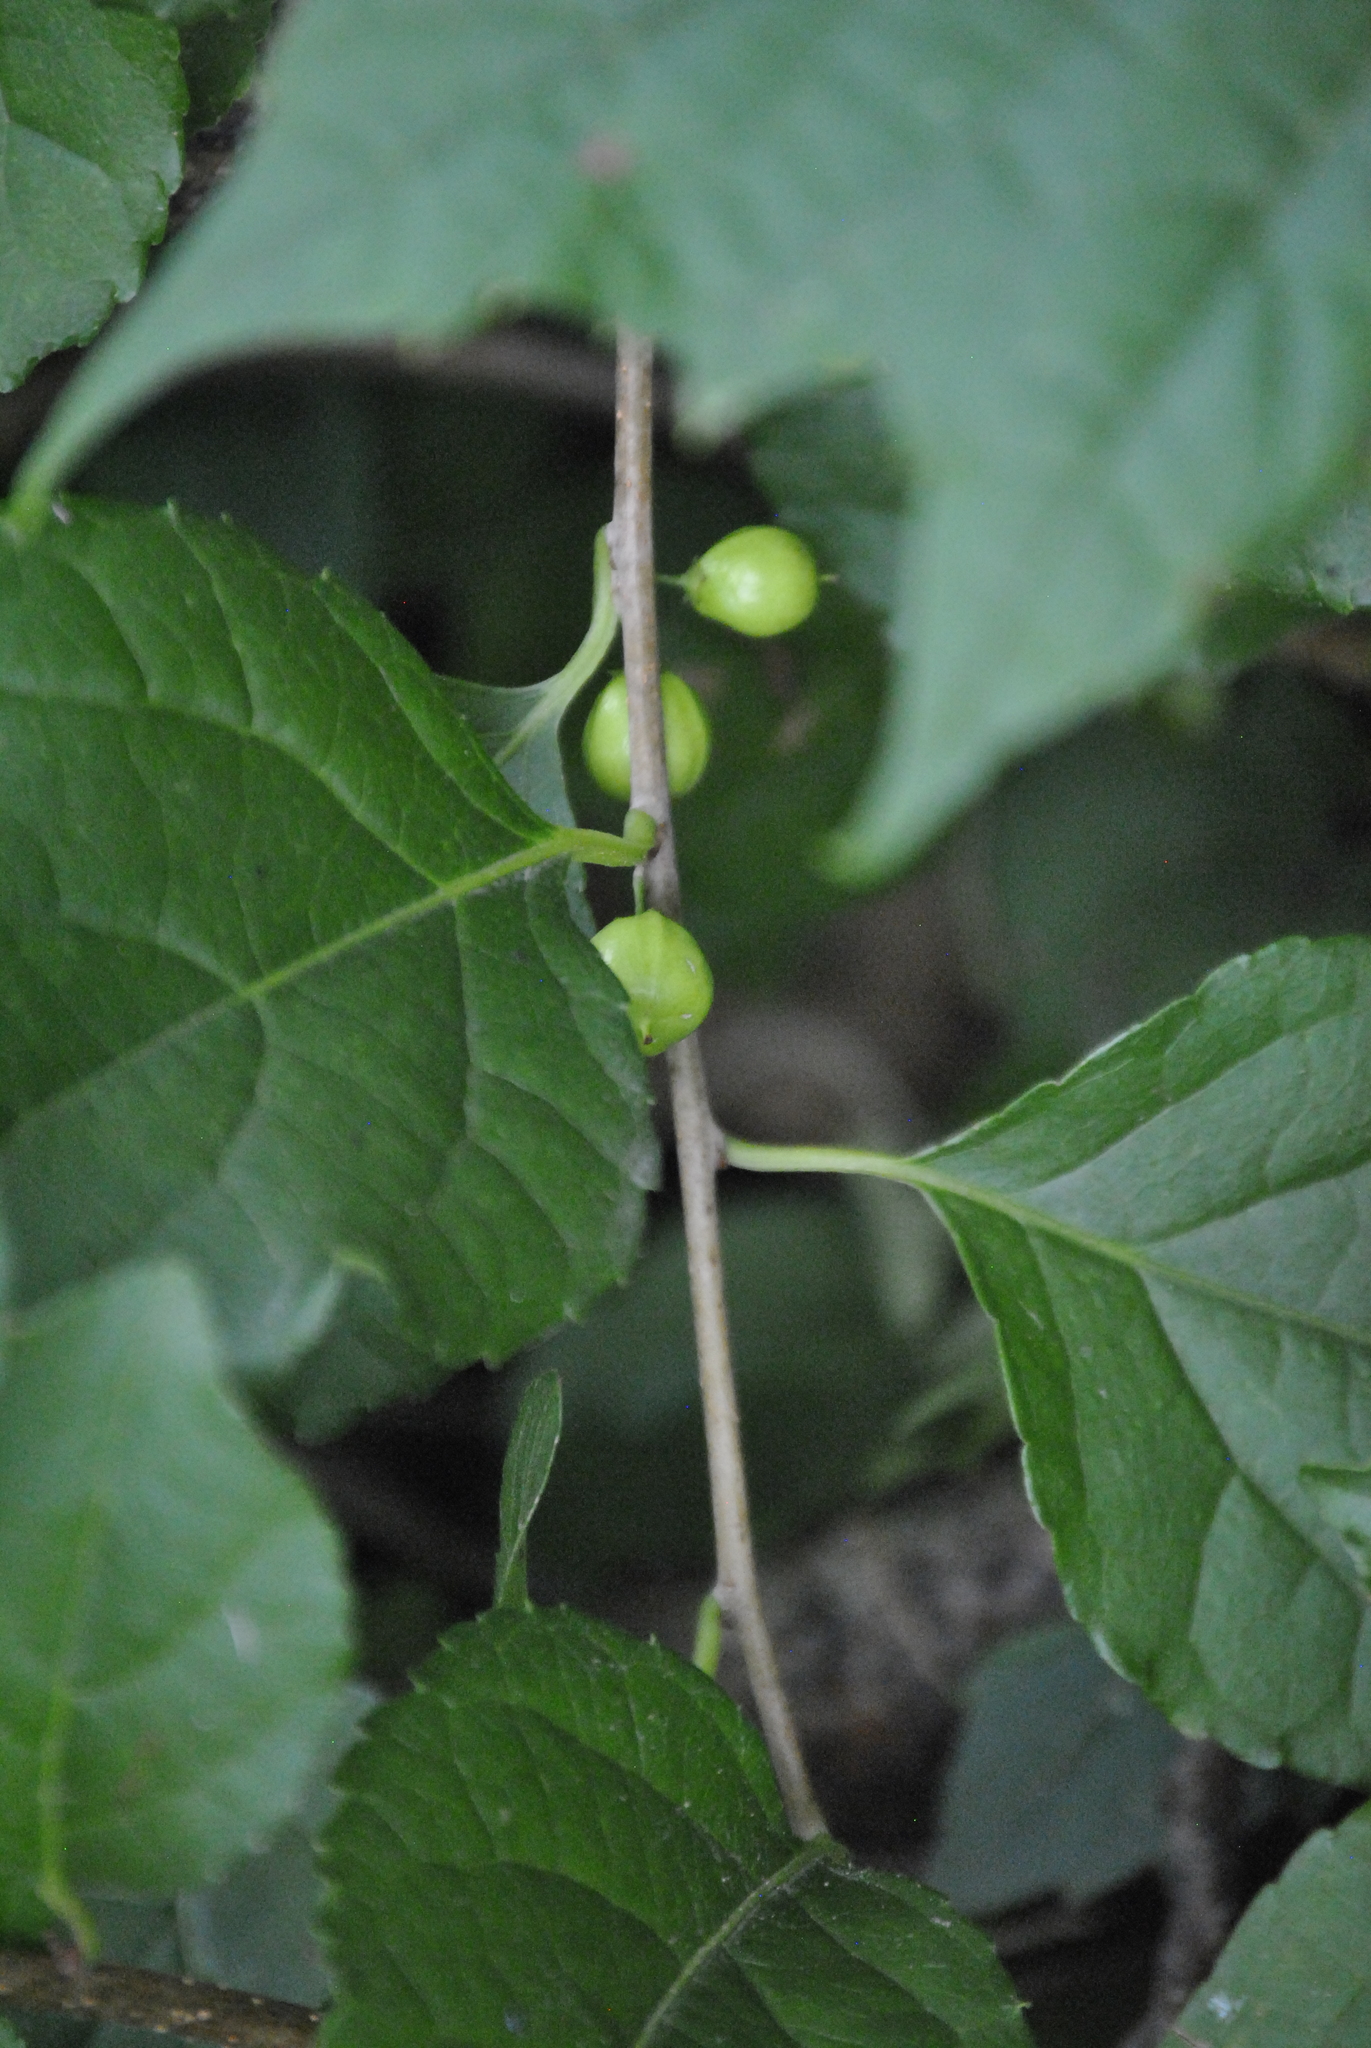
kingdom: Plantae
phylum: Tracheophyta
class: Magnoliopsida
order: Celastrales
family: Celastraceae
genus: Celastrus
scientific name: Celastrus orbiculatus
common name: Oriental bittersweet
